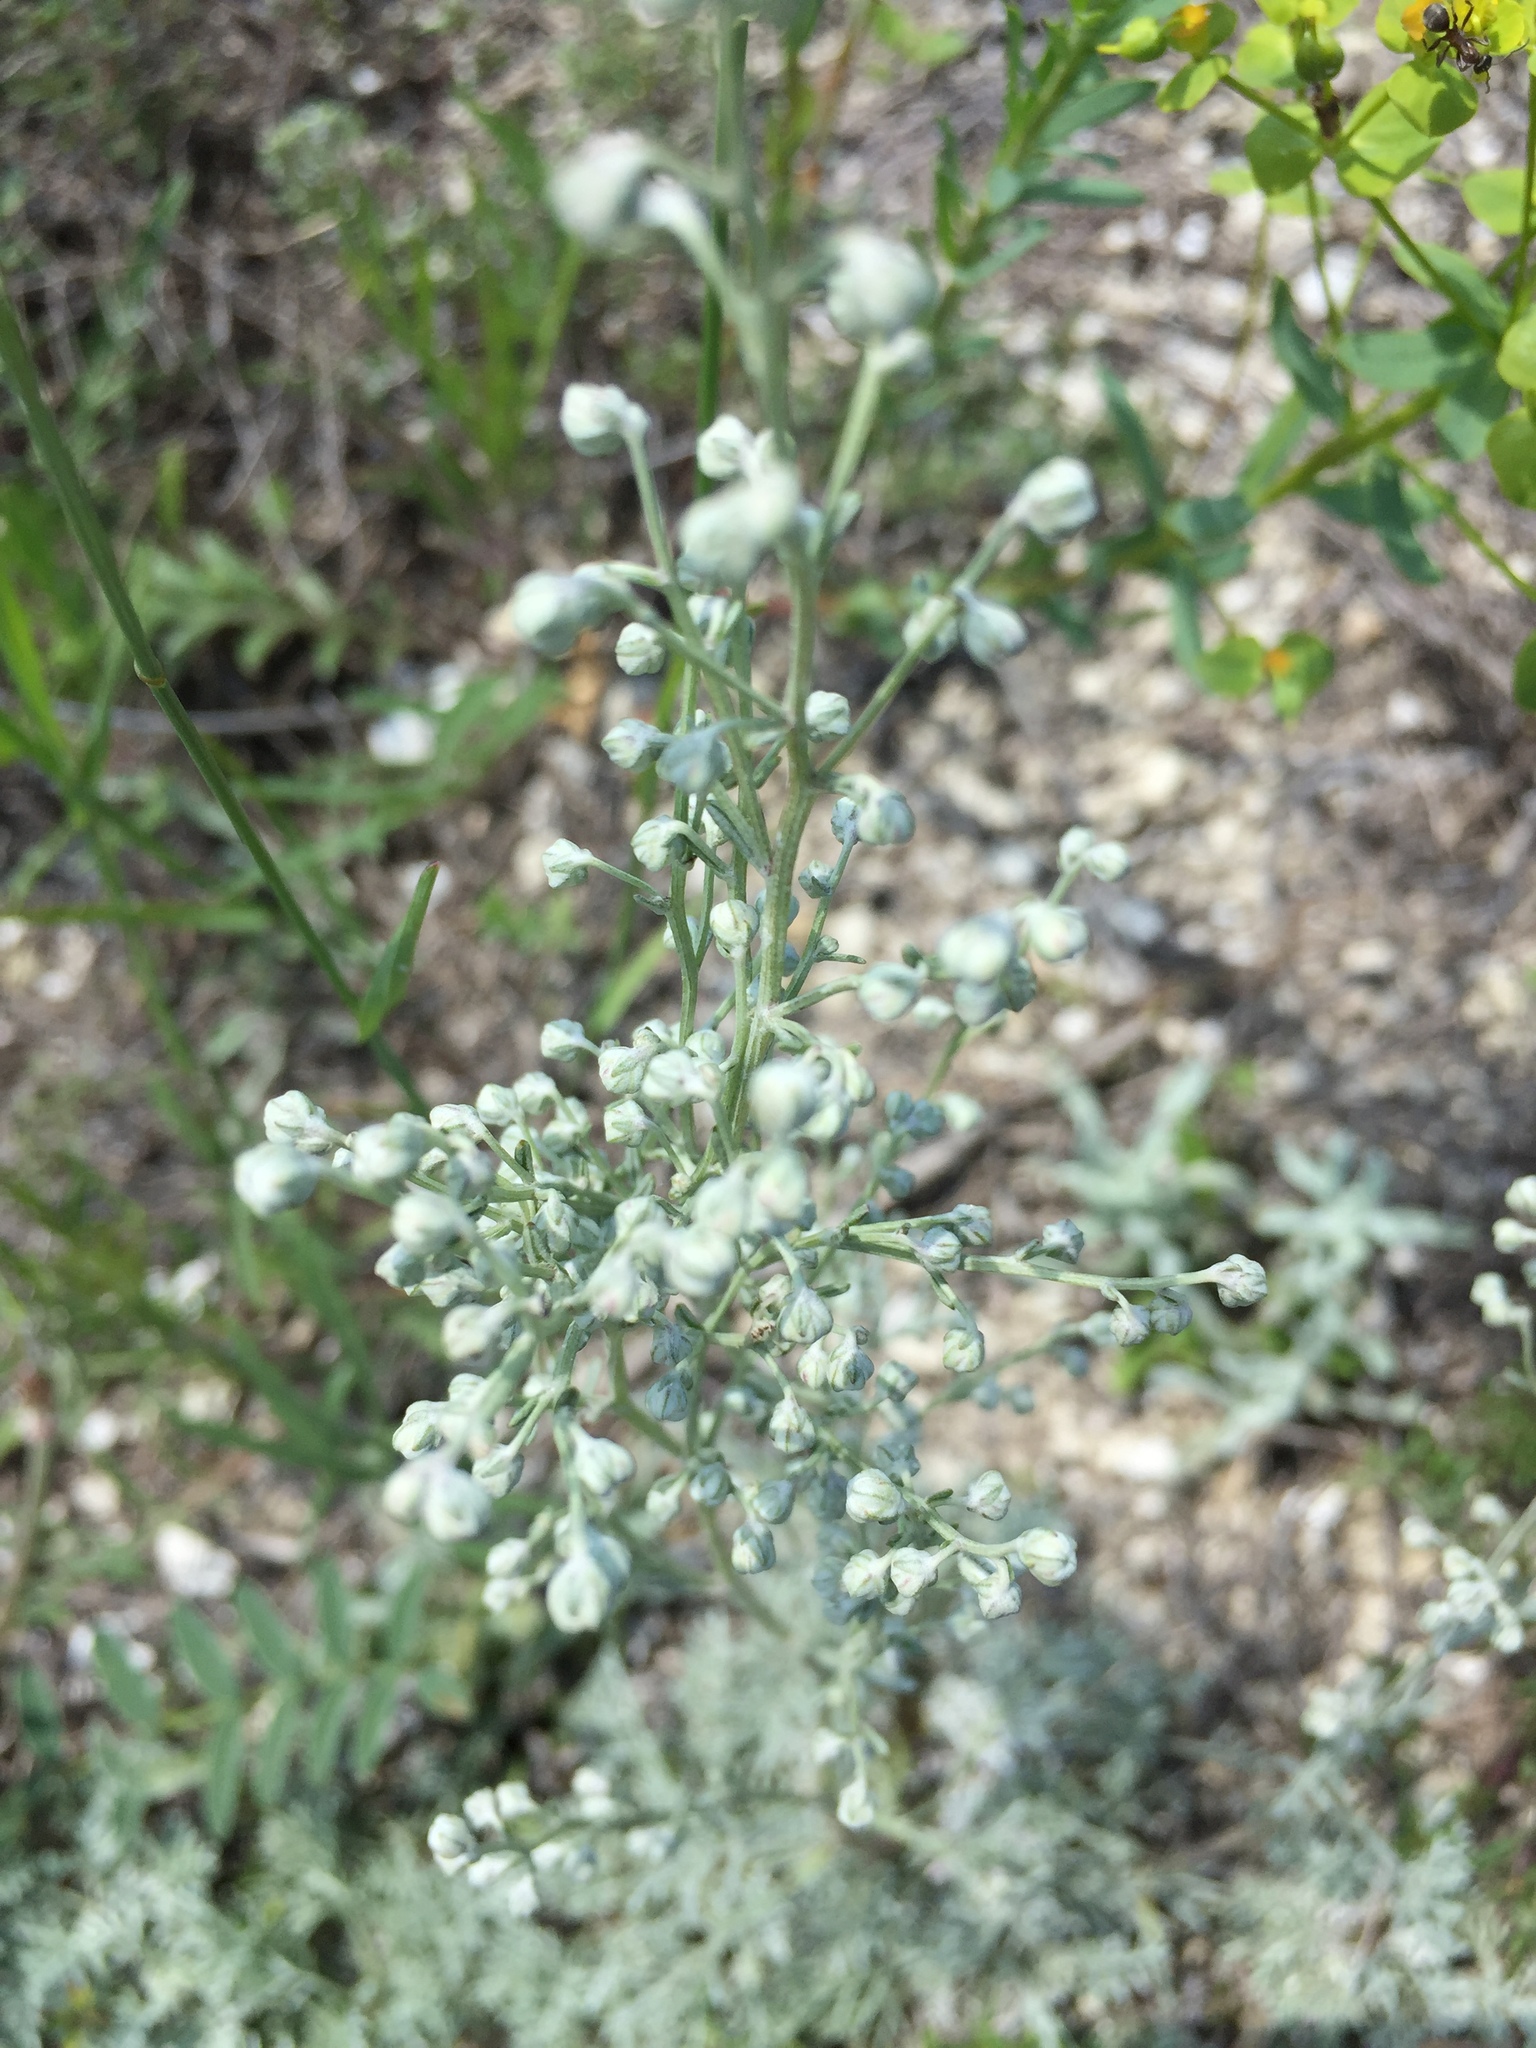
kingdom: Plantae
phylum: Tracheophyta
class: Magnoliopsida
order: Asterales
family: Asteraceae
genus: Artemisia
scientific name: Artemisia hololeuca
